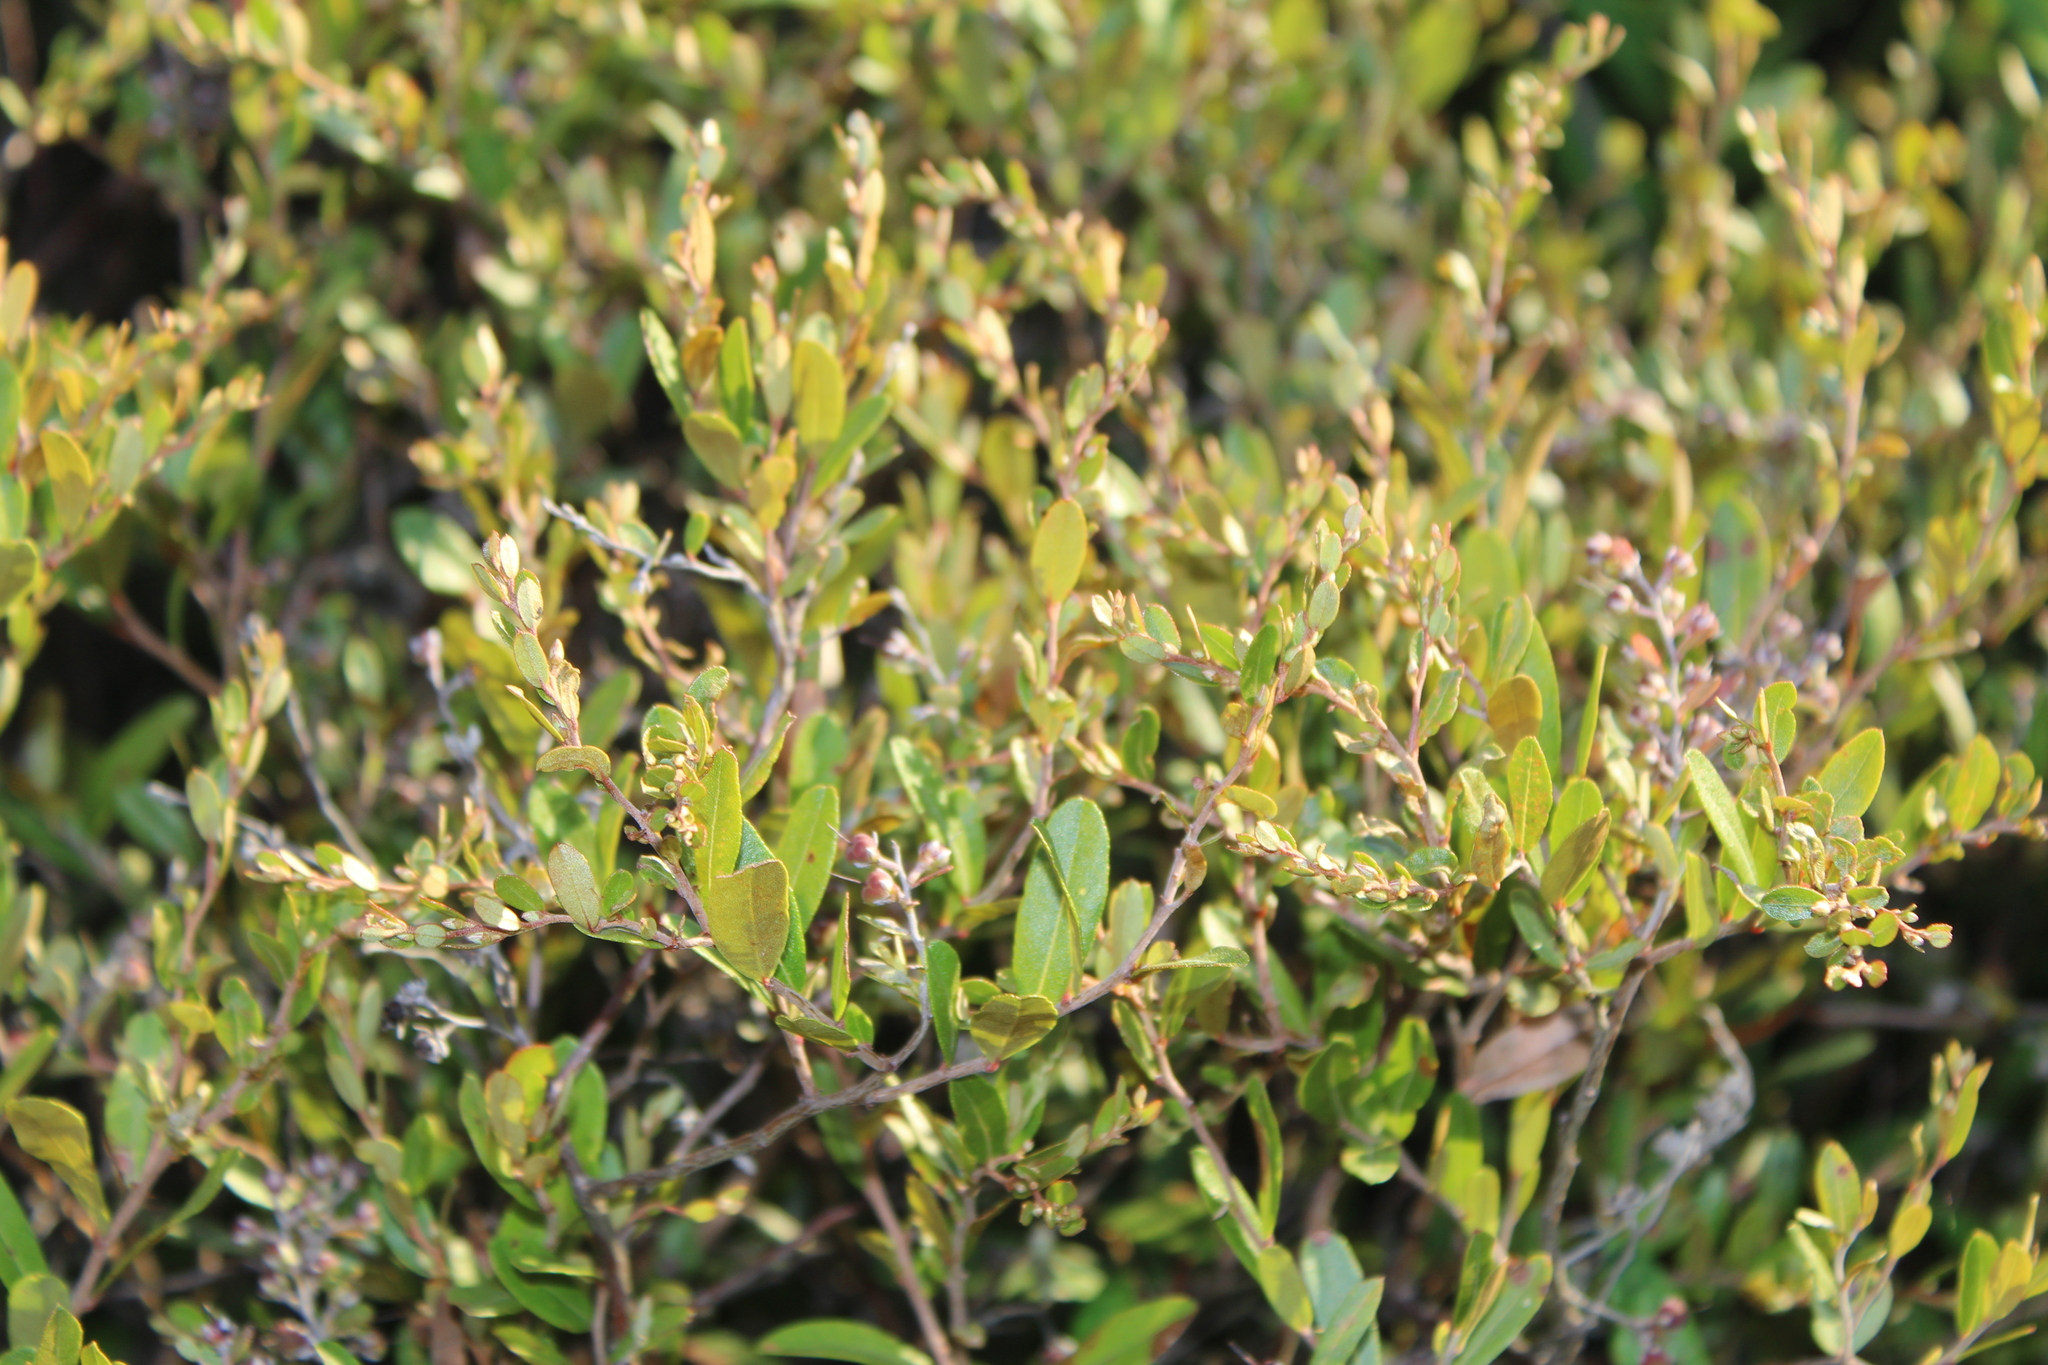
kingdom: Plantae
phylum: Tracheophyta
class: Magnoliopsida
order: Ericales
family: Ericaceae
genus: Chamaedaphne
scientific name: Chamaedaphne calyculata
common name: Leatherleaf
